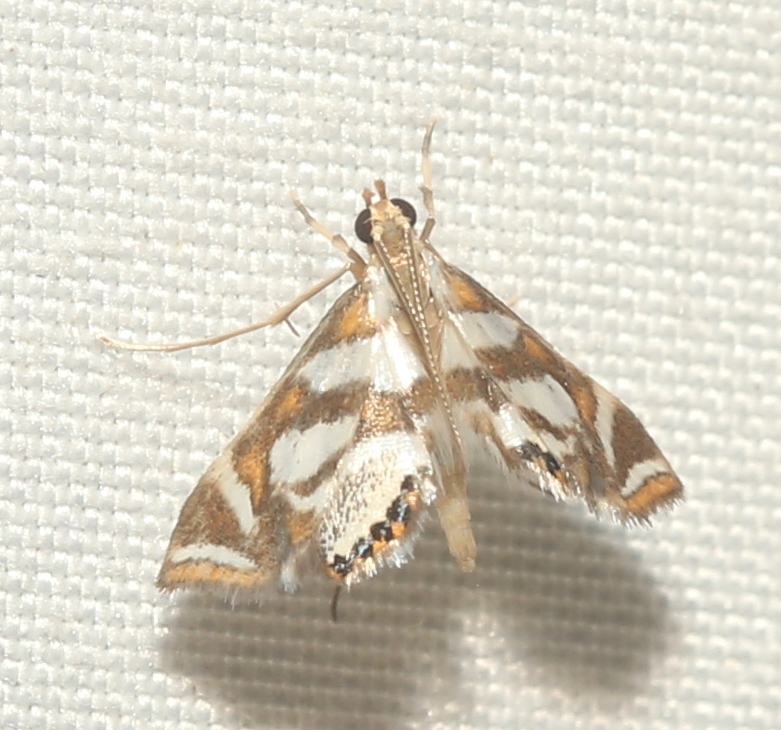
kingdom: Animalia
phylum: Arthropoda
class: Insecta
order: Lepidoptera
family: Crambidae
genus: Chrysendeton
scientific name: Chrysendeton medicinalis
